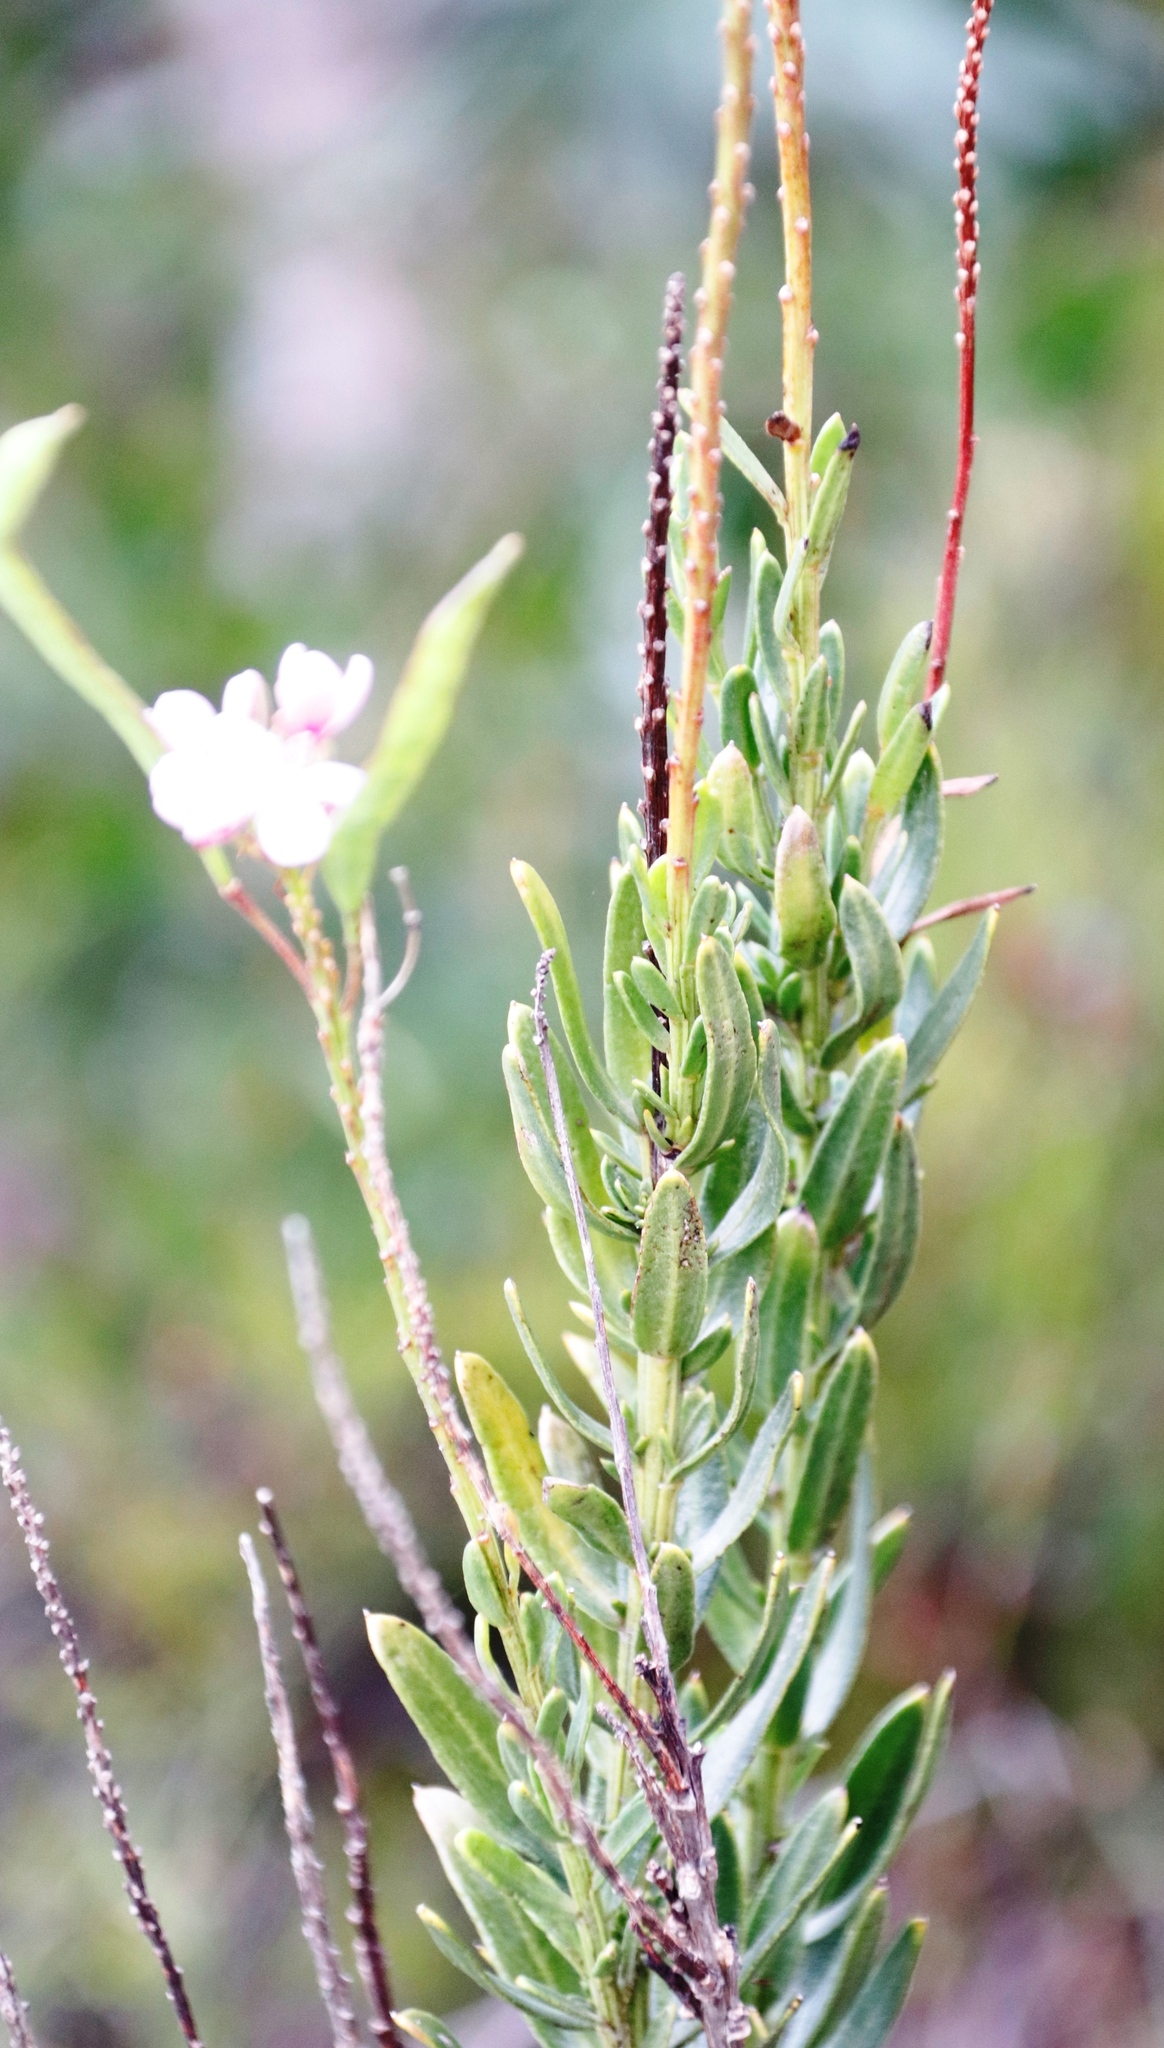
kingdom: Plantae
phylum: Tracheophyta
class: Magnoliopsida
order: Brassicales
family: Brassicaceae
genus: Heliophila
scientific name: Heliophila callosa
